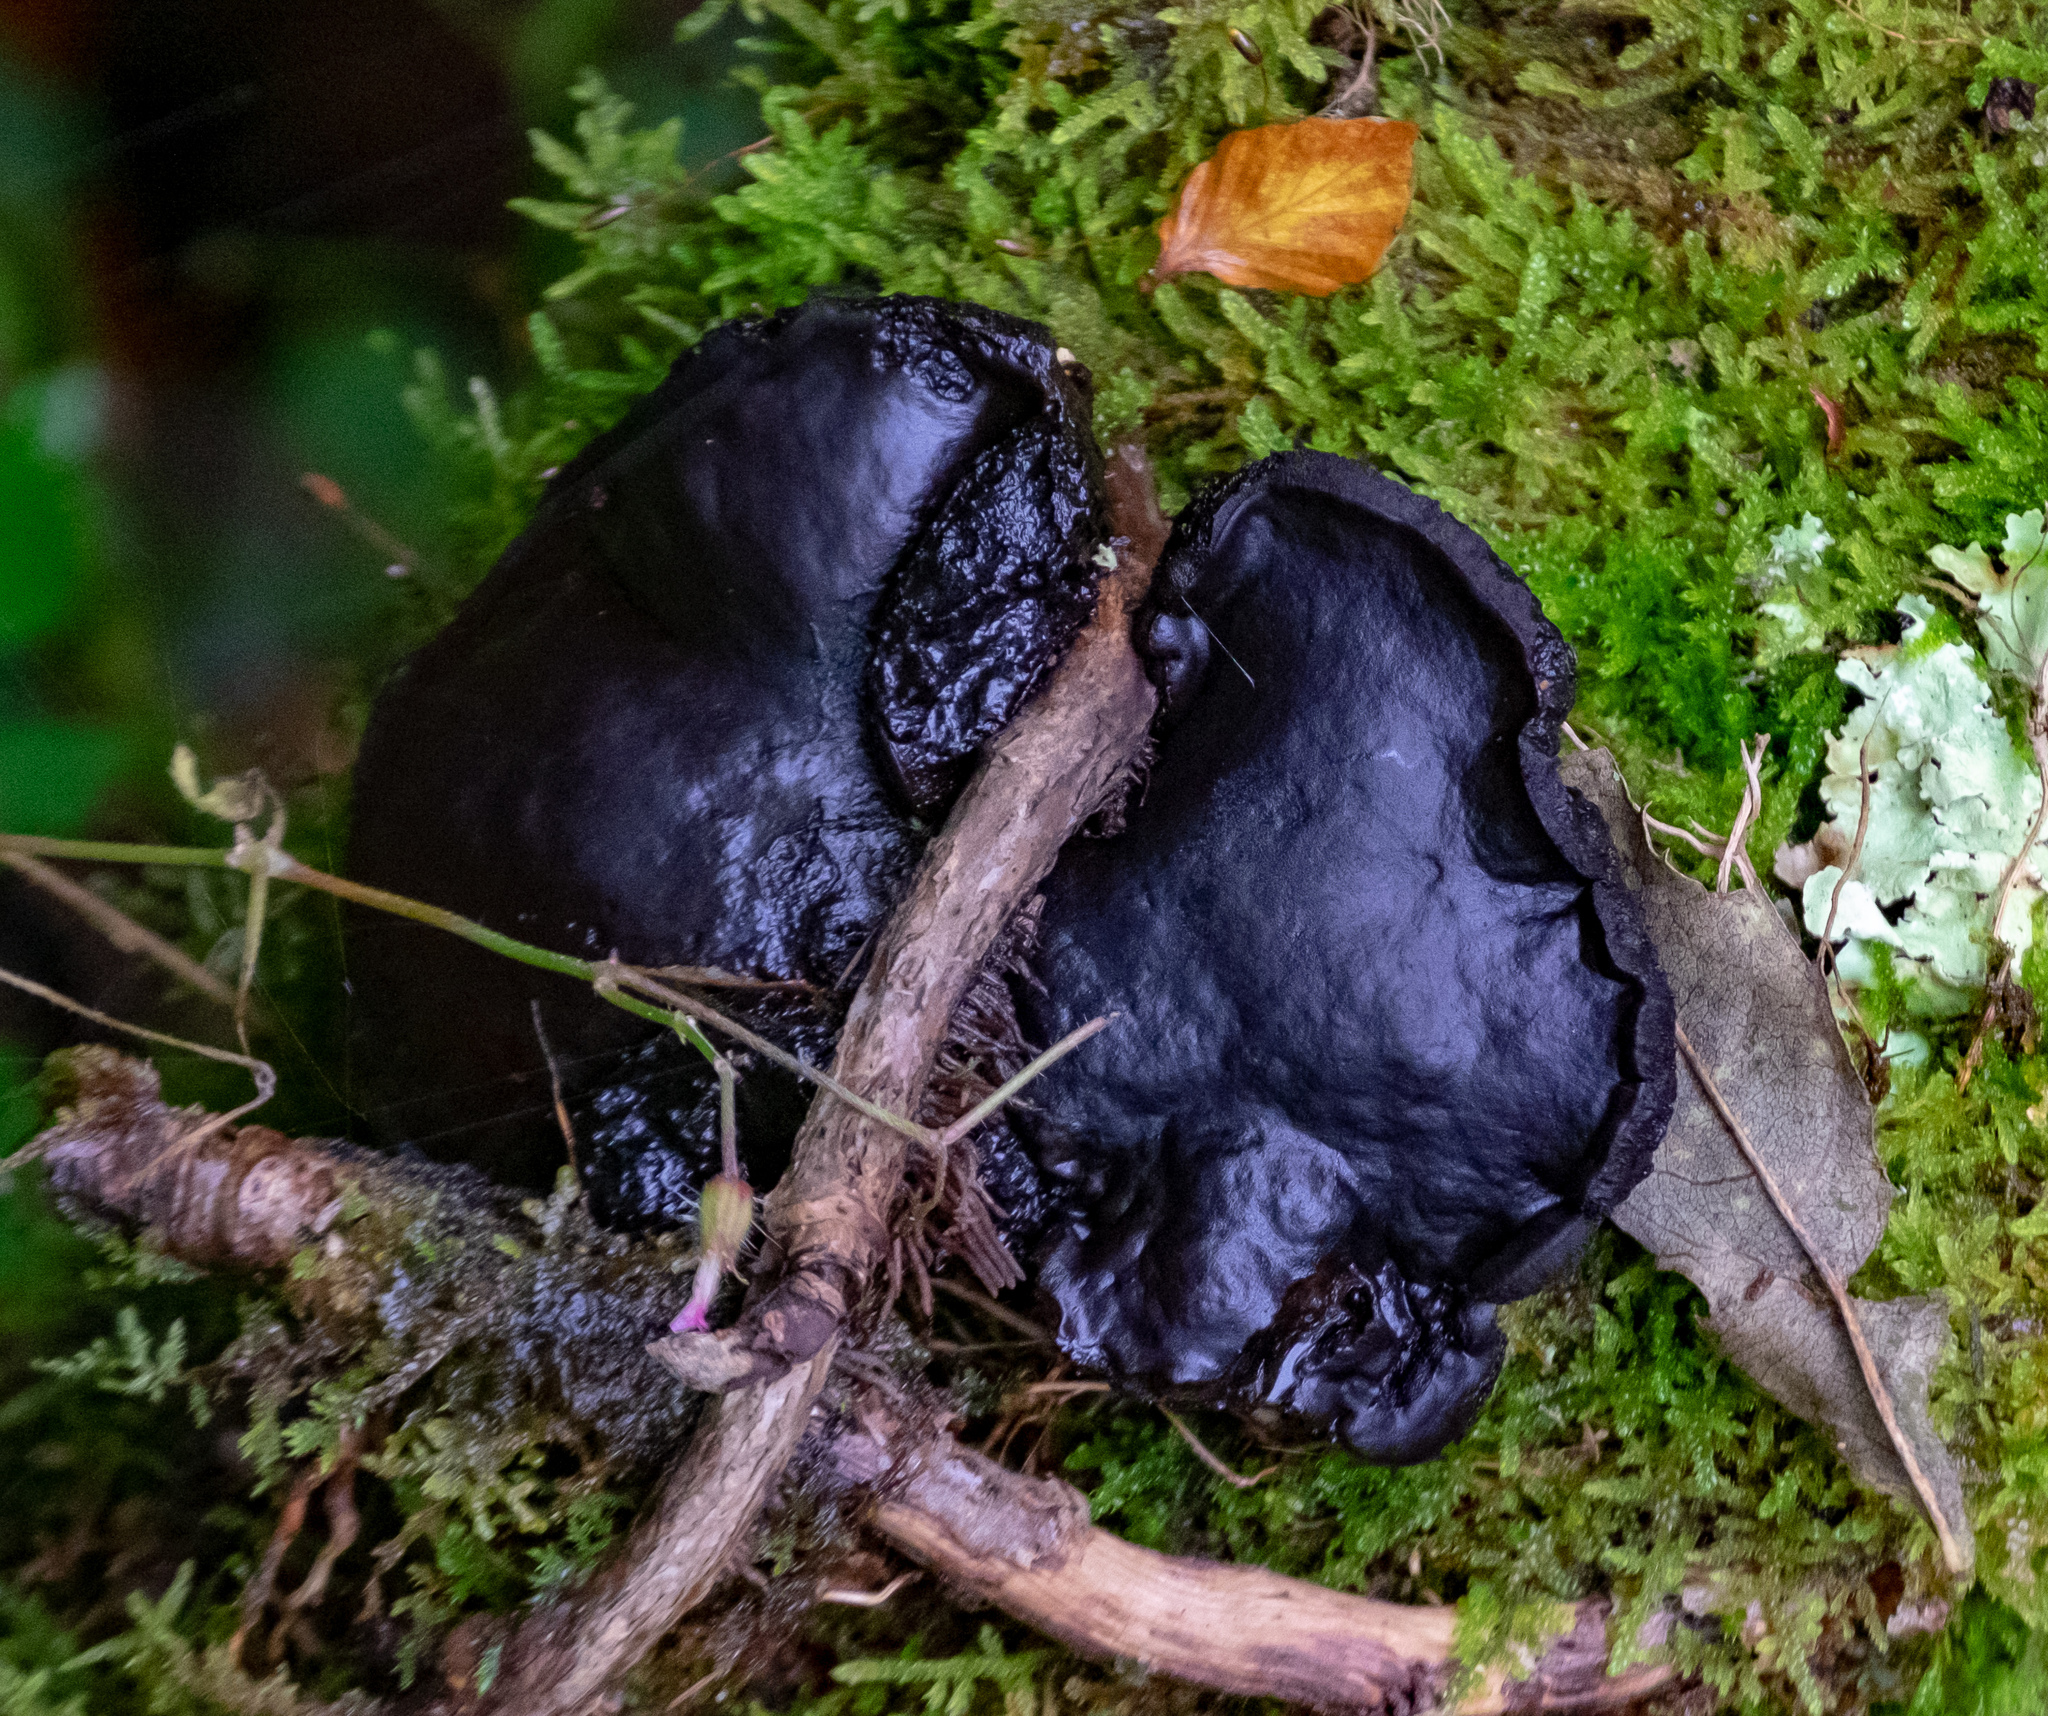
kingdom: Fungi
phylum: Ascomycota
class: Leotiomycetes
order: Phacidiales
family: Phacidiaceae
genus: Bulgaria
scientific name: Bulgaria inquinans
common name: Black bulgar
